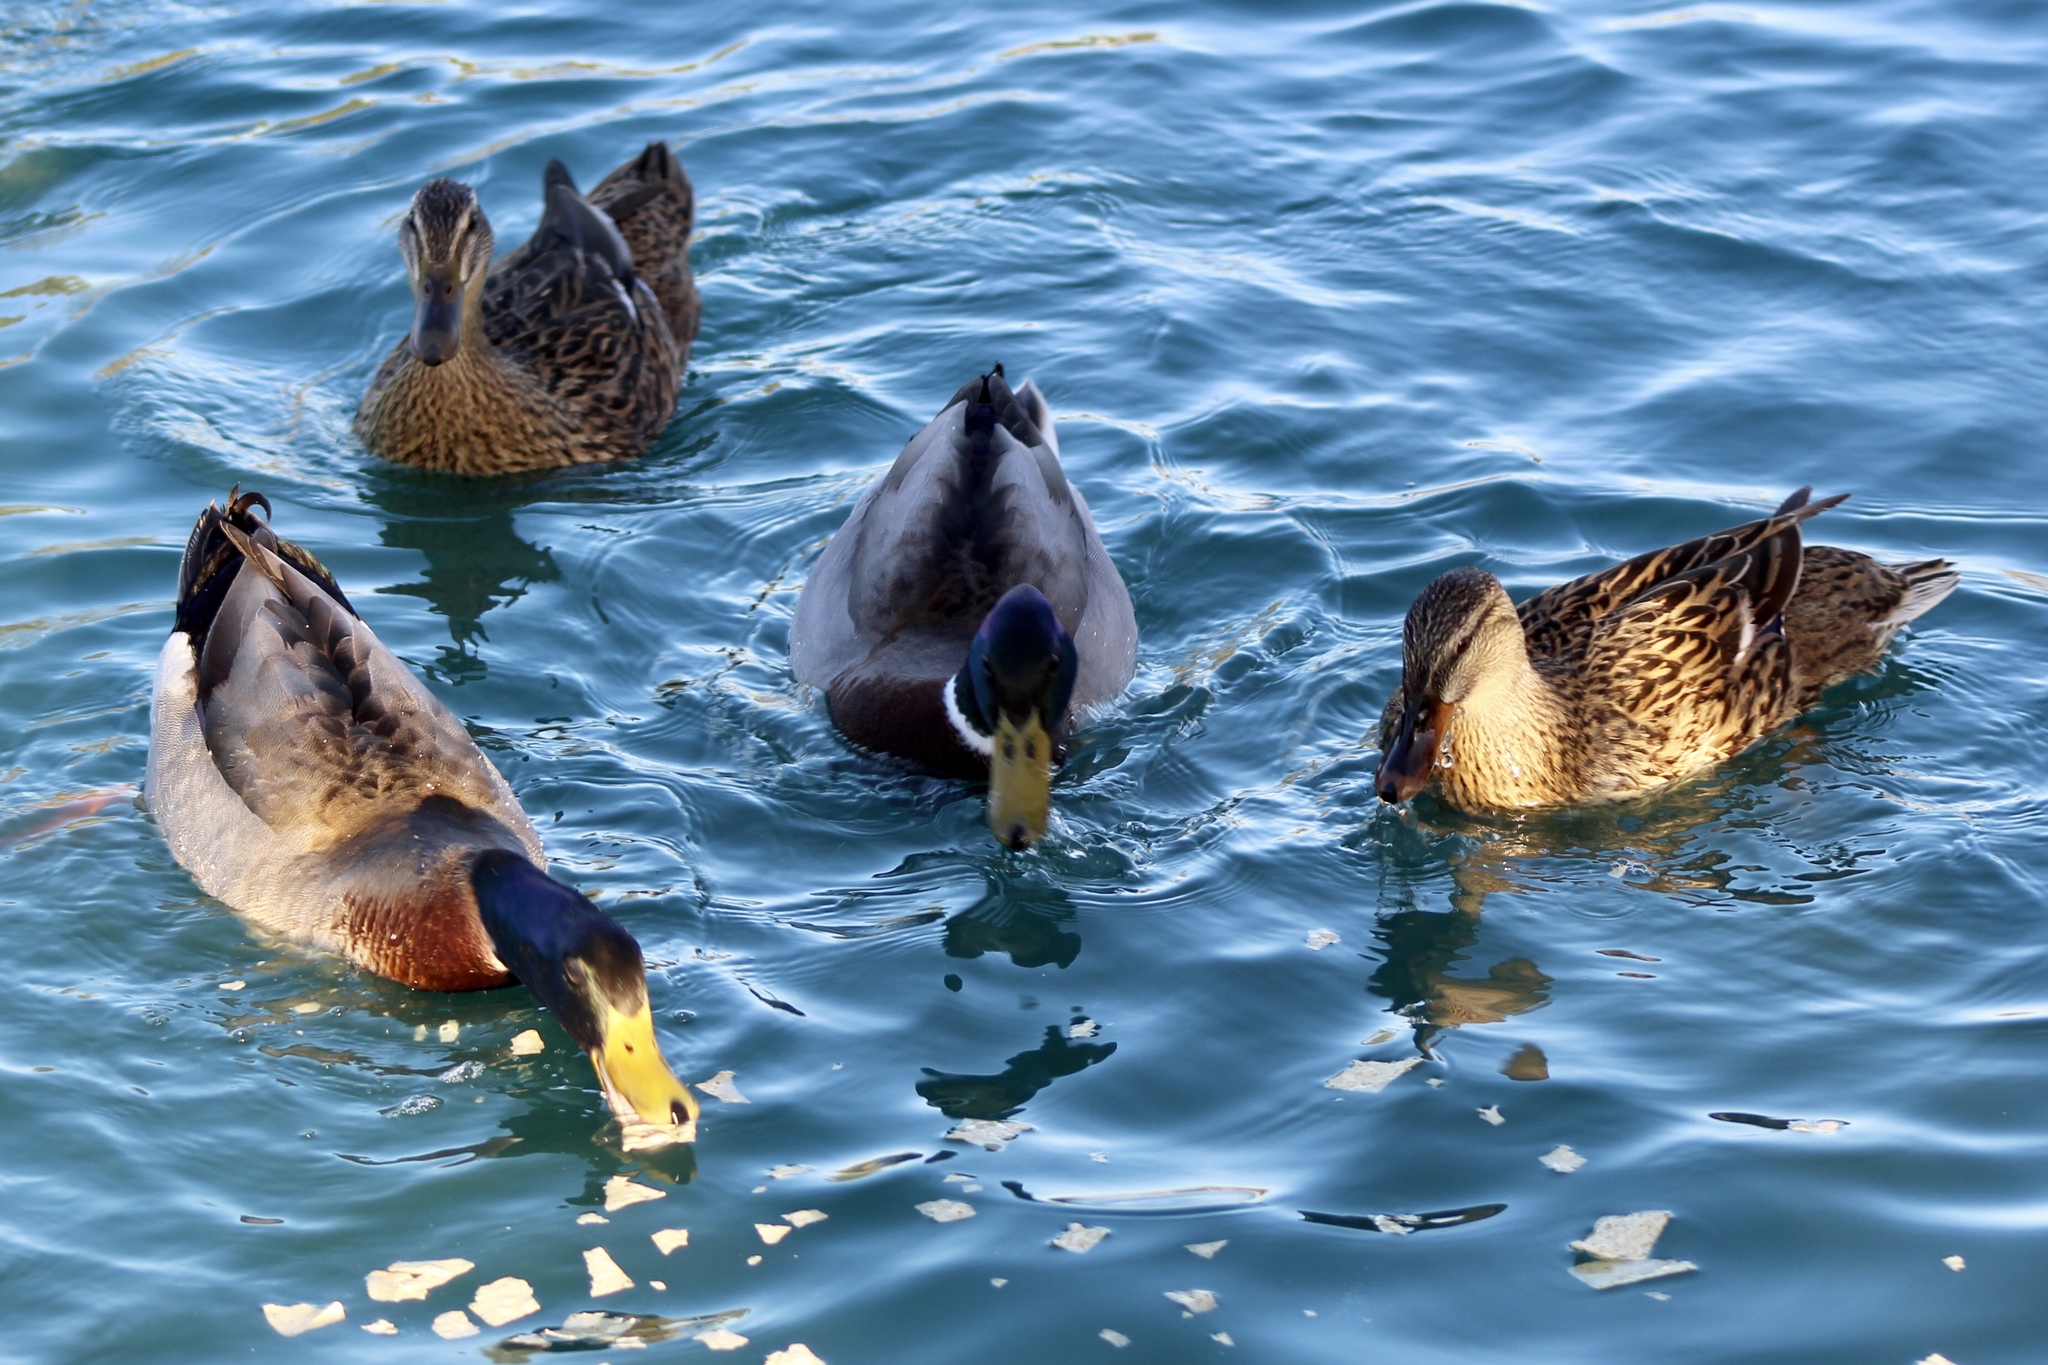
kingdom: Animalia
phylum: Chordata
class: Aves
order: Anseriformes
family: Anatidae
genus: Anas
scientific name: Anas platyrhynchos
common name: Mallard
